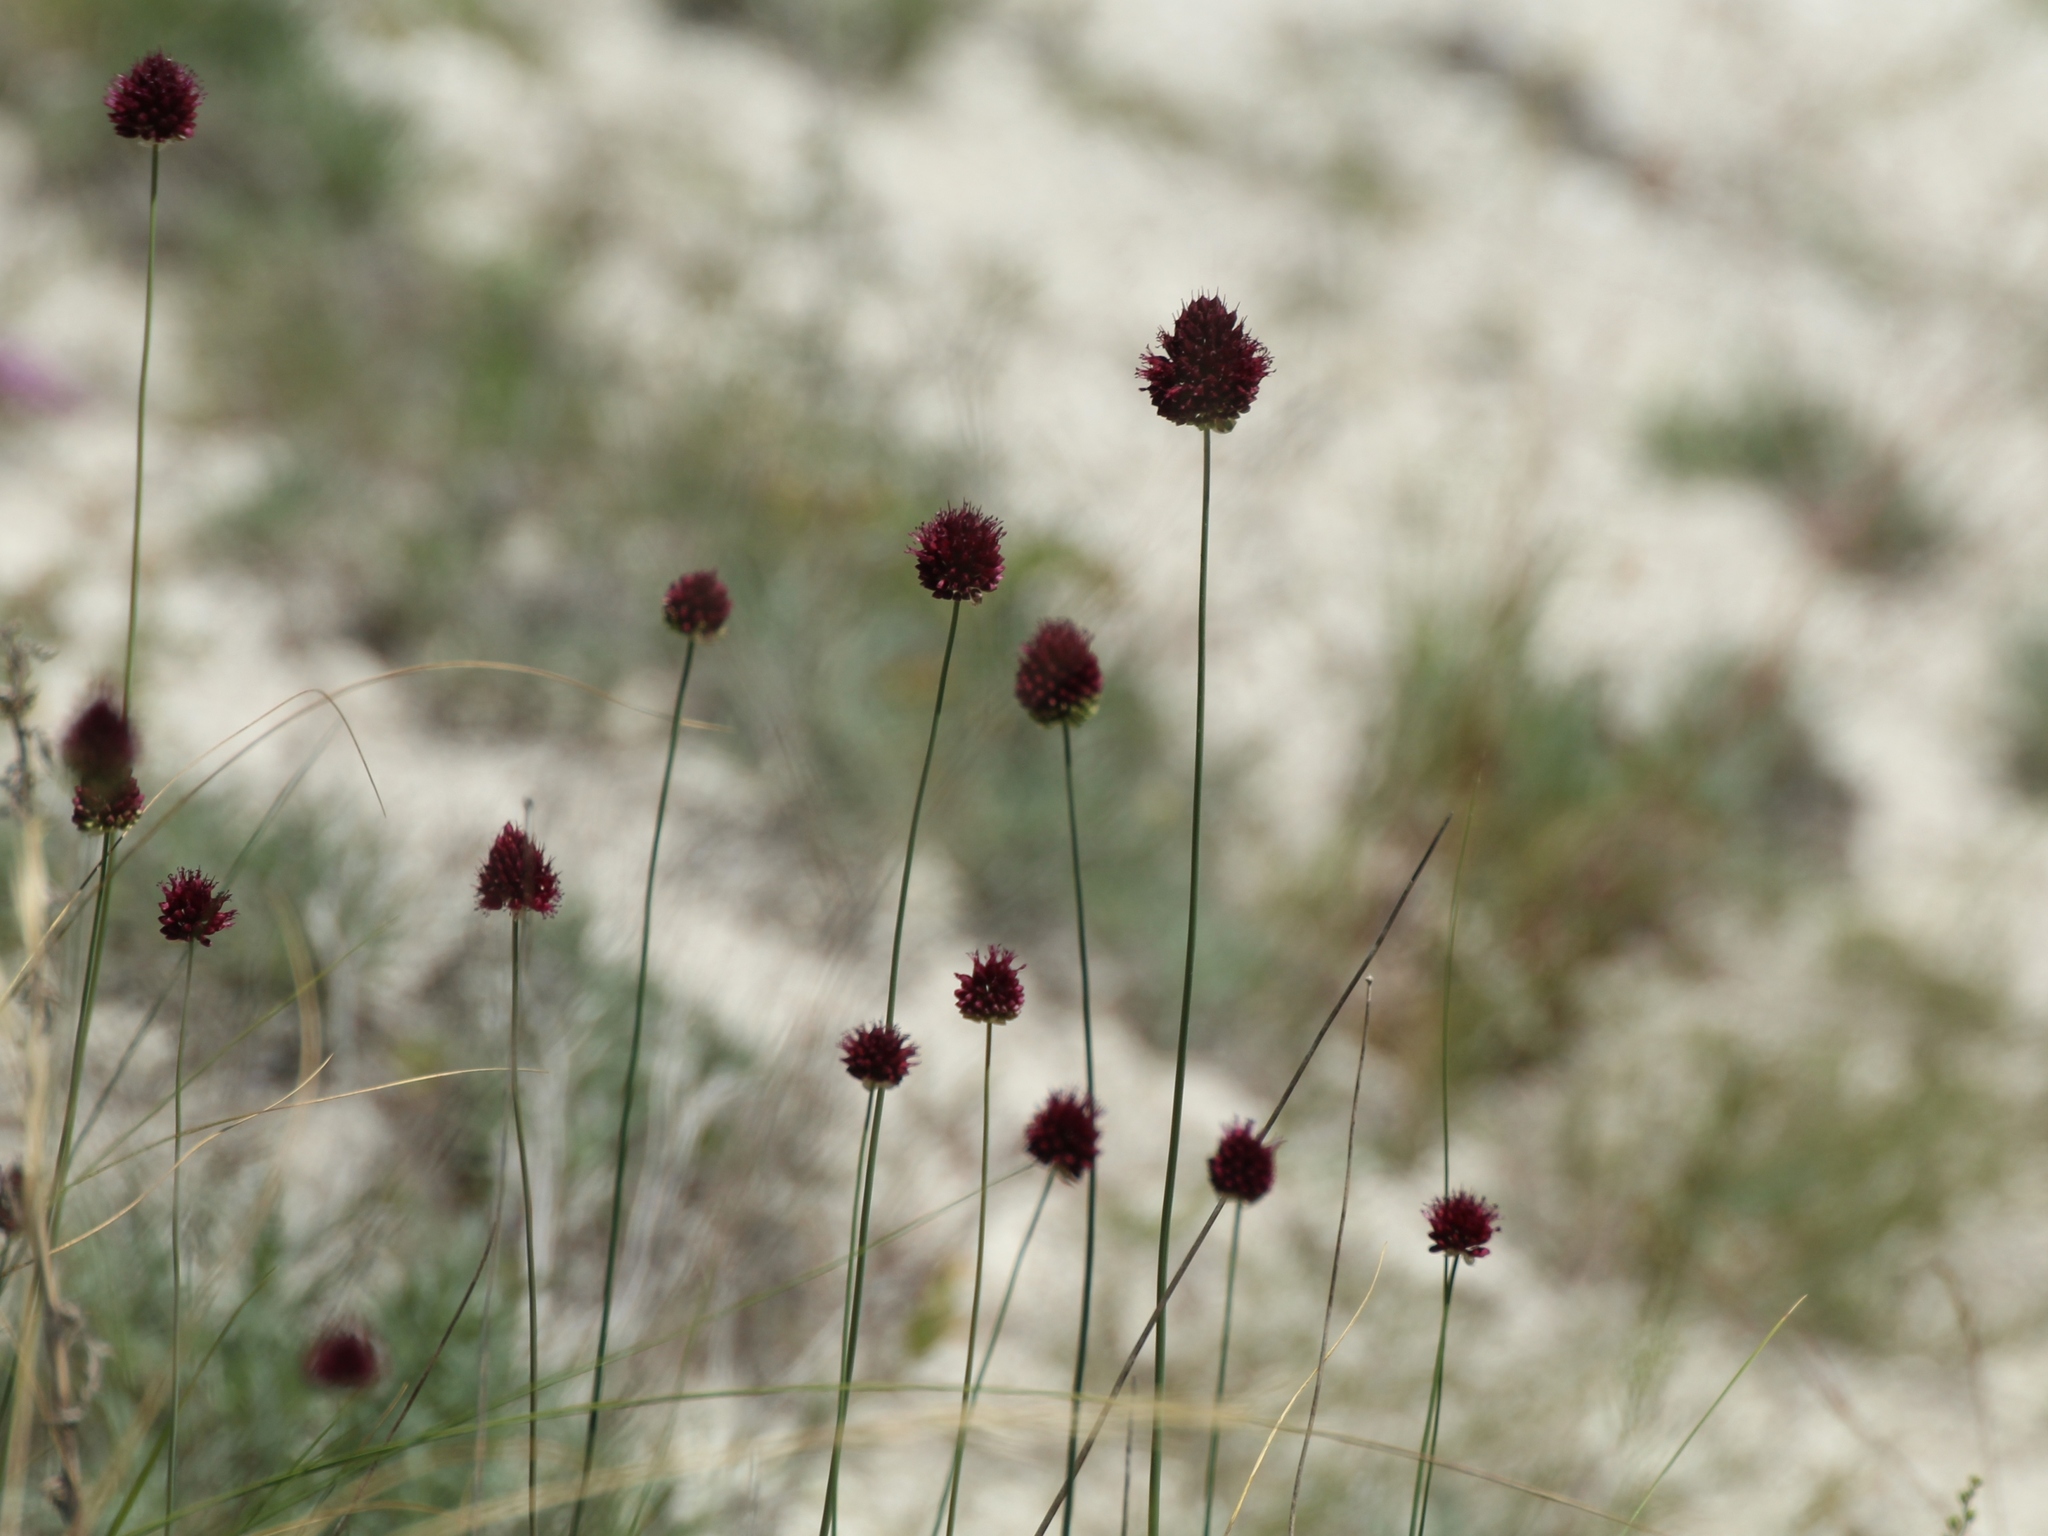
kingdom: Plantae
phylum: Tracheophyta
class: Liliopsida
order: Asparagales
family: Amaryllidaceae
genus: Allium
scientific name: Allium sphaerocephalon
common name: Round-headed leek
